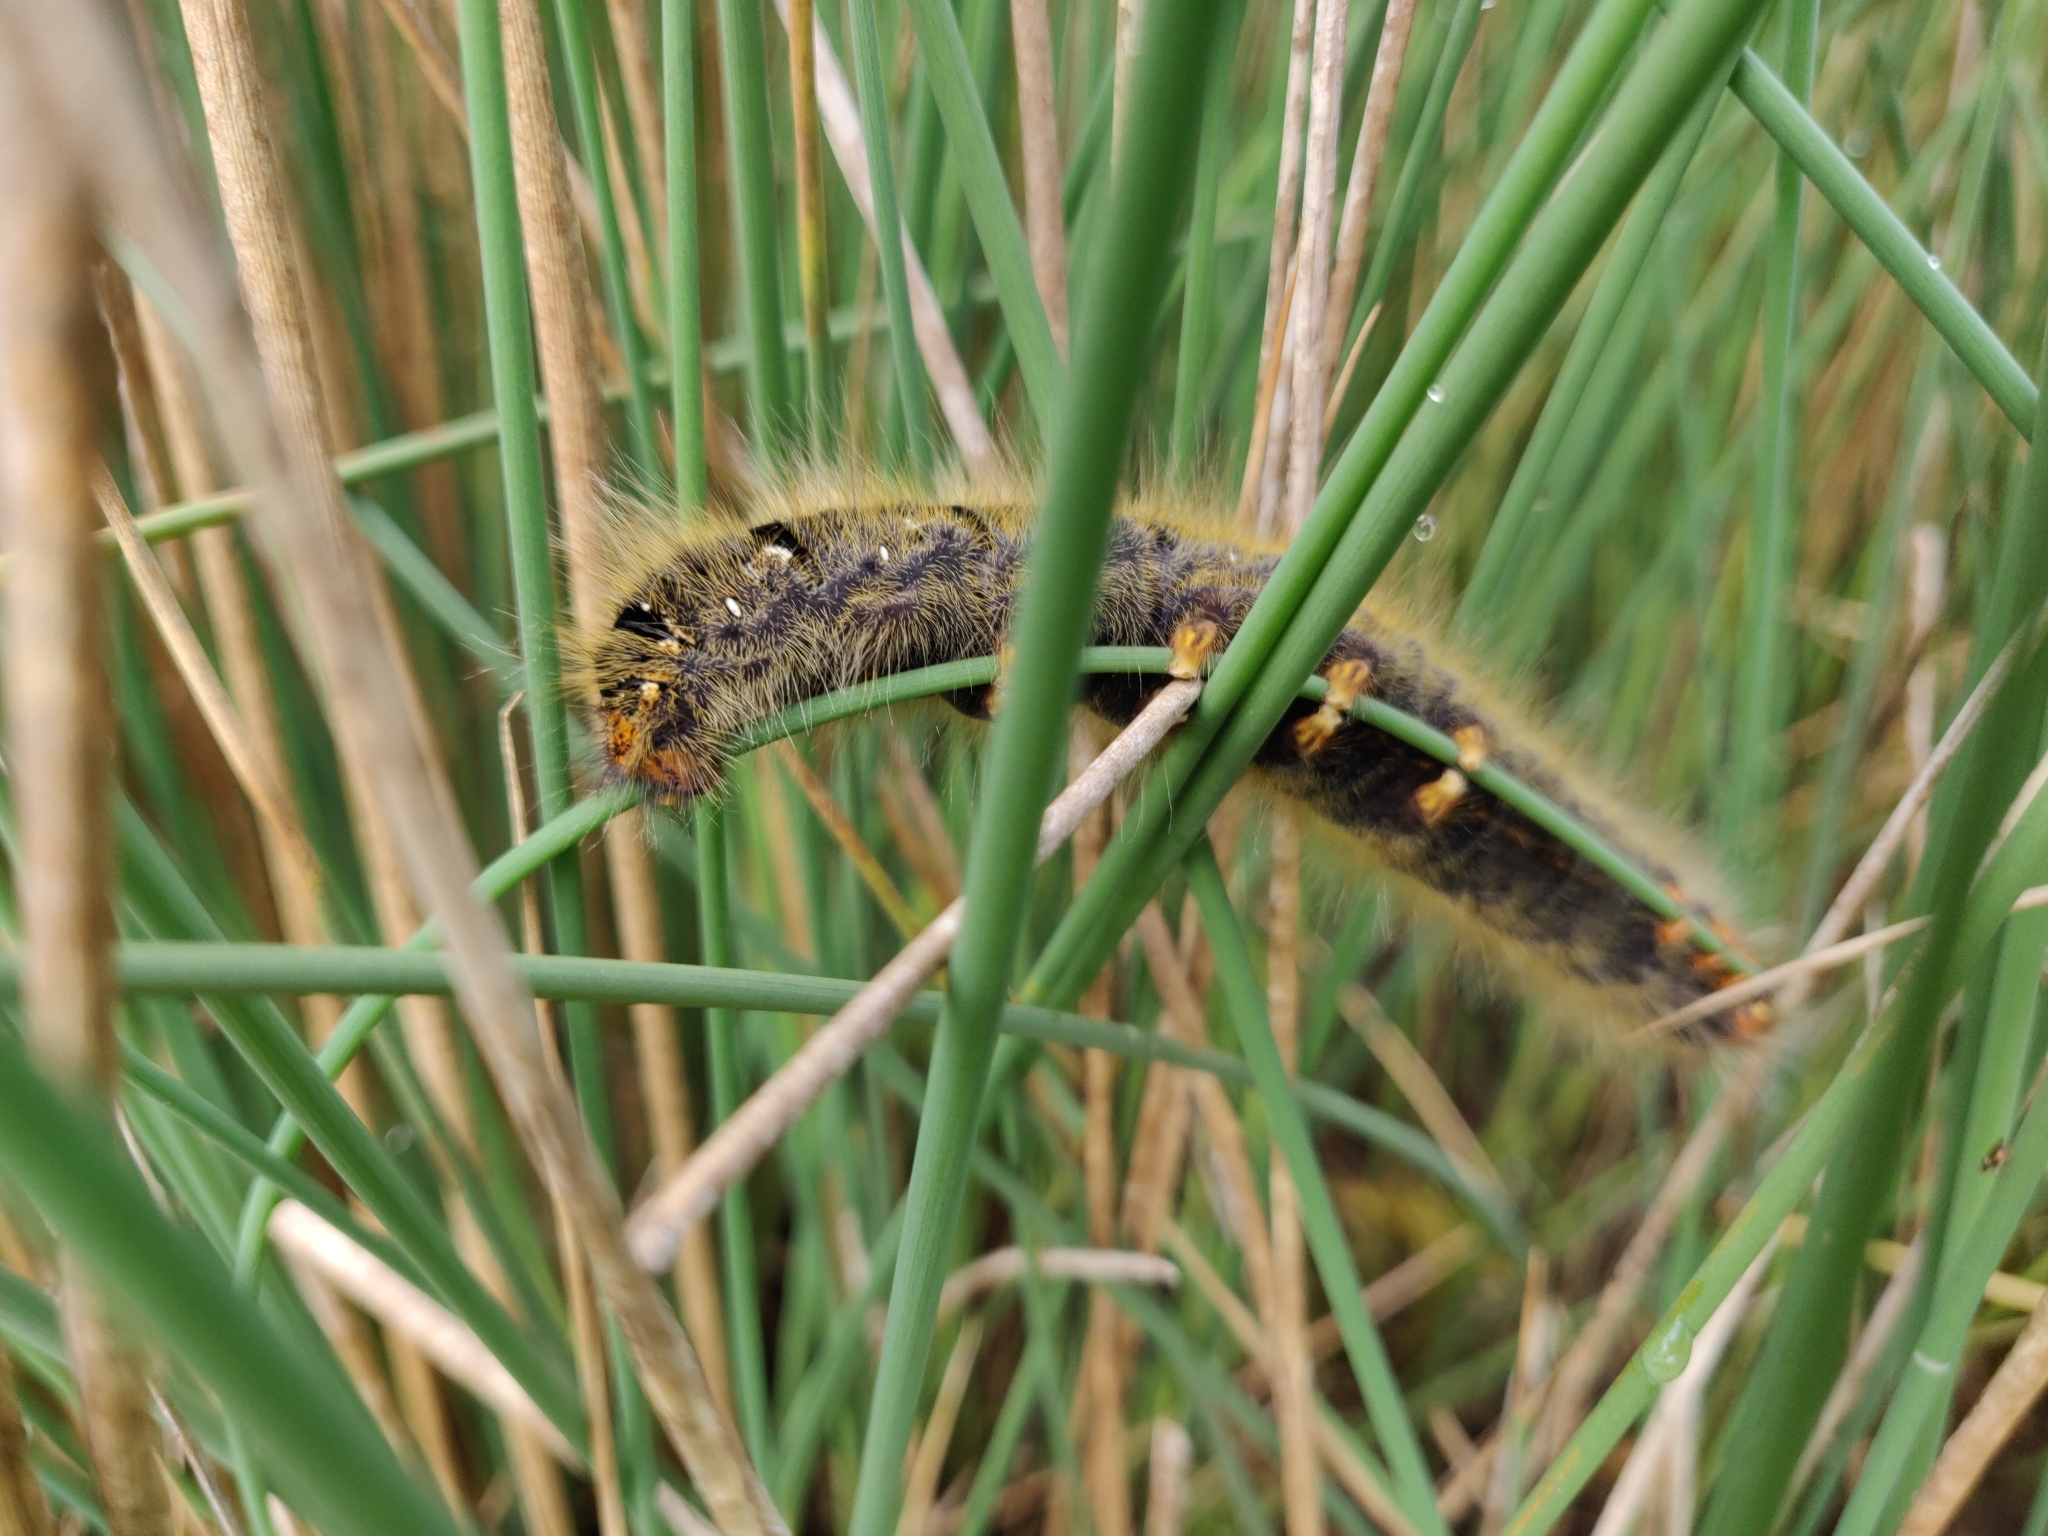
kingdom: Animalia
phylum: Arthropoda
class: Insecta
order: Lepidoptera
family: Lasiocampidae
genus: Lasiocampa
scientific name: Lasiocampa trifolii
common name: Grass eggar
